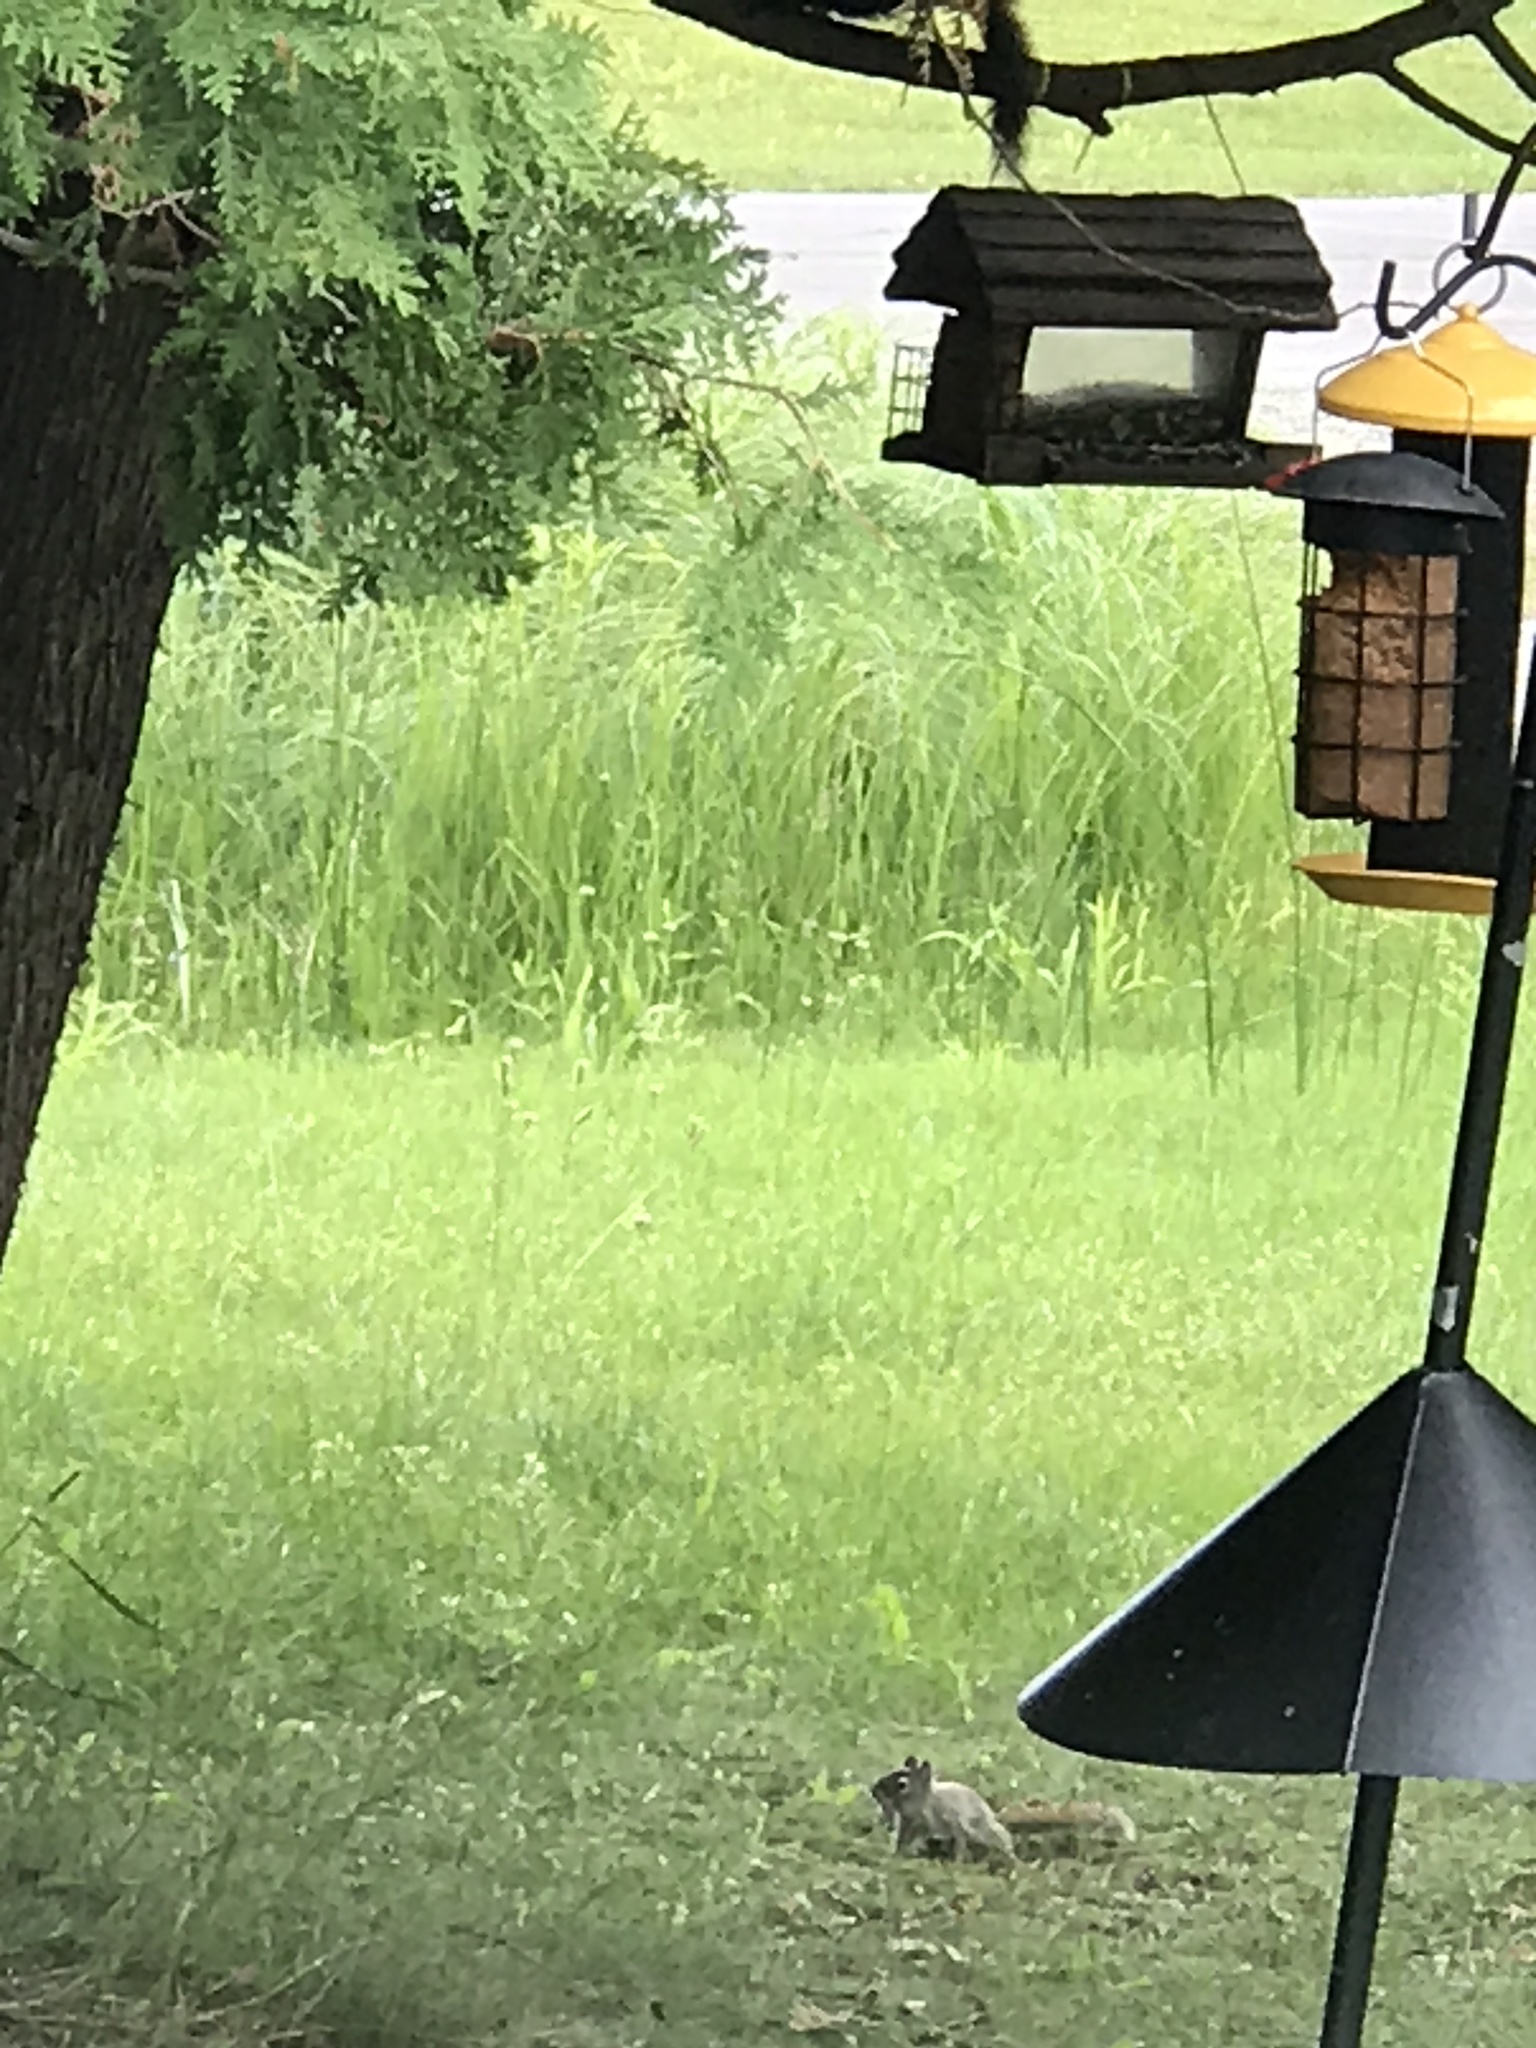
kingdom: Animalia
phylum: Chordata
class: Mammalia
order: Rodentia
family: Sciuridae
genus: Tamiasciurus
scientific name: Tamiasciurus hudsonicus
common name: Red squirrel
